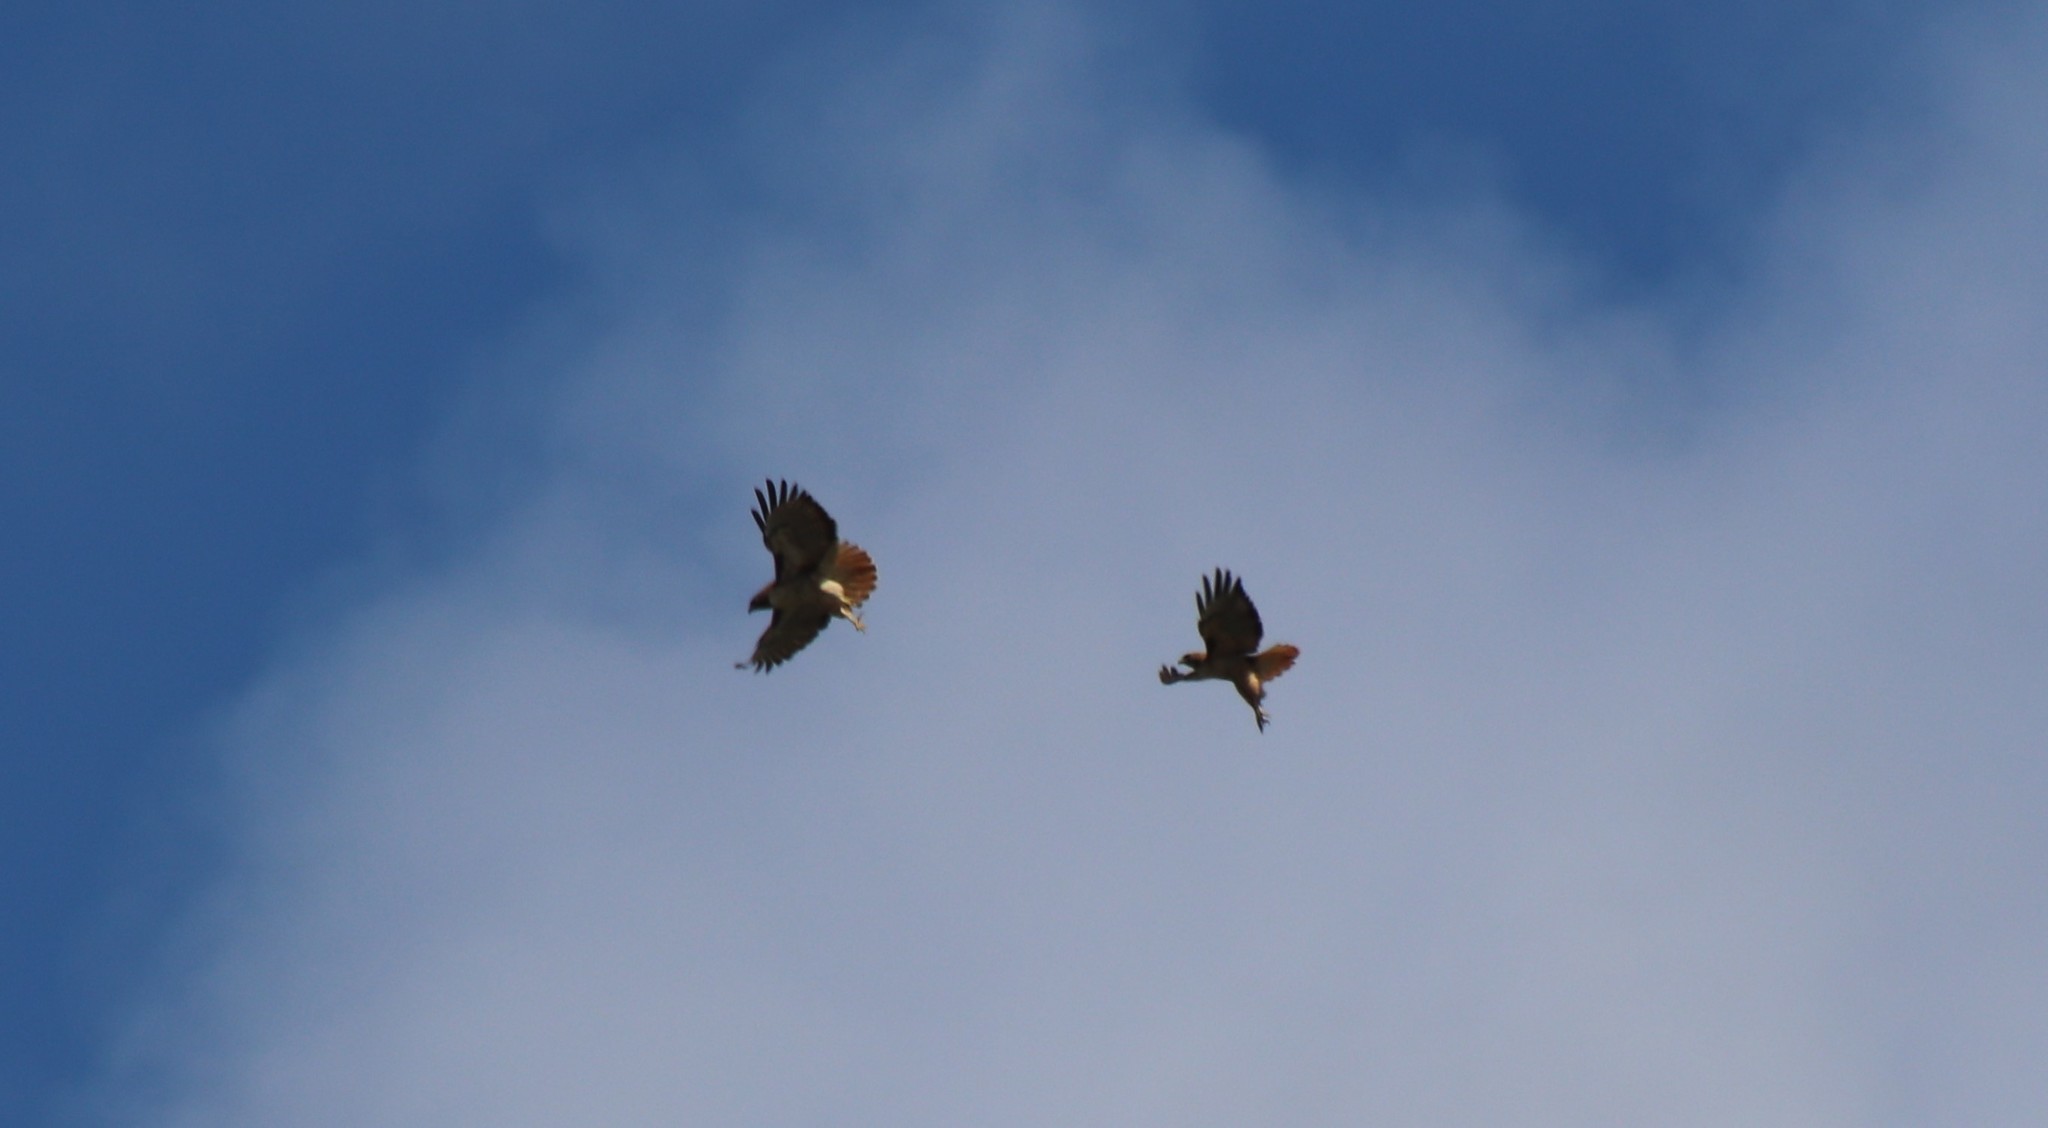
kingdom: Animalia
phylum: Chordata
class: Aves
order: Accipitriformes
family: Accipitridae
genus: Buteo
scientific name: Buteo jamaicensis
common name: Red-tailed hawk
